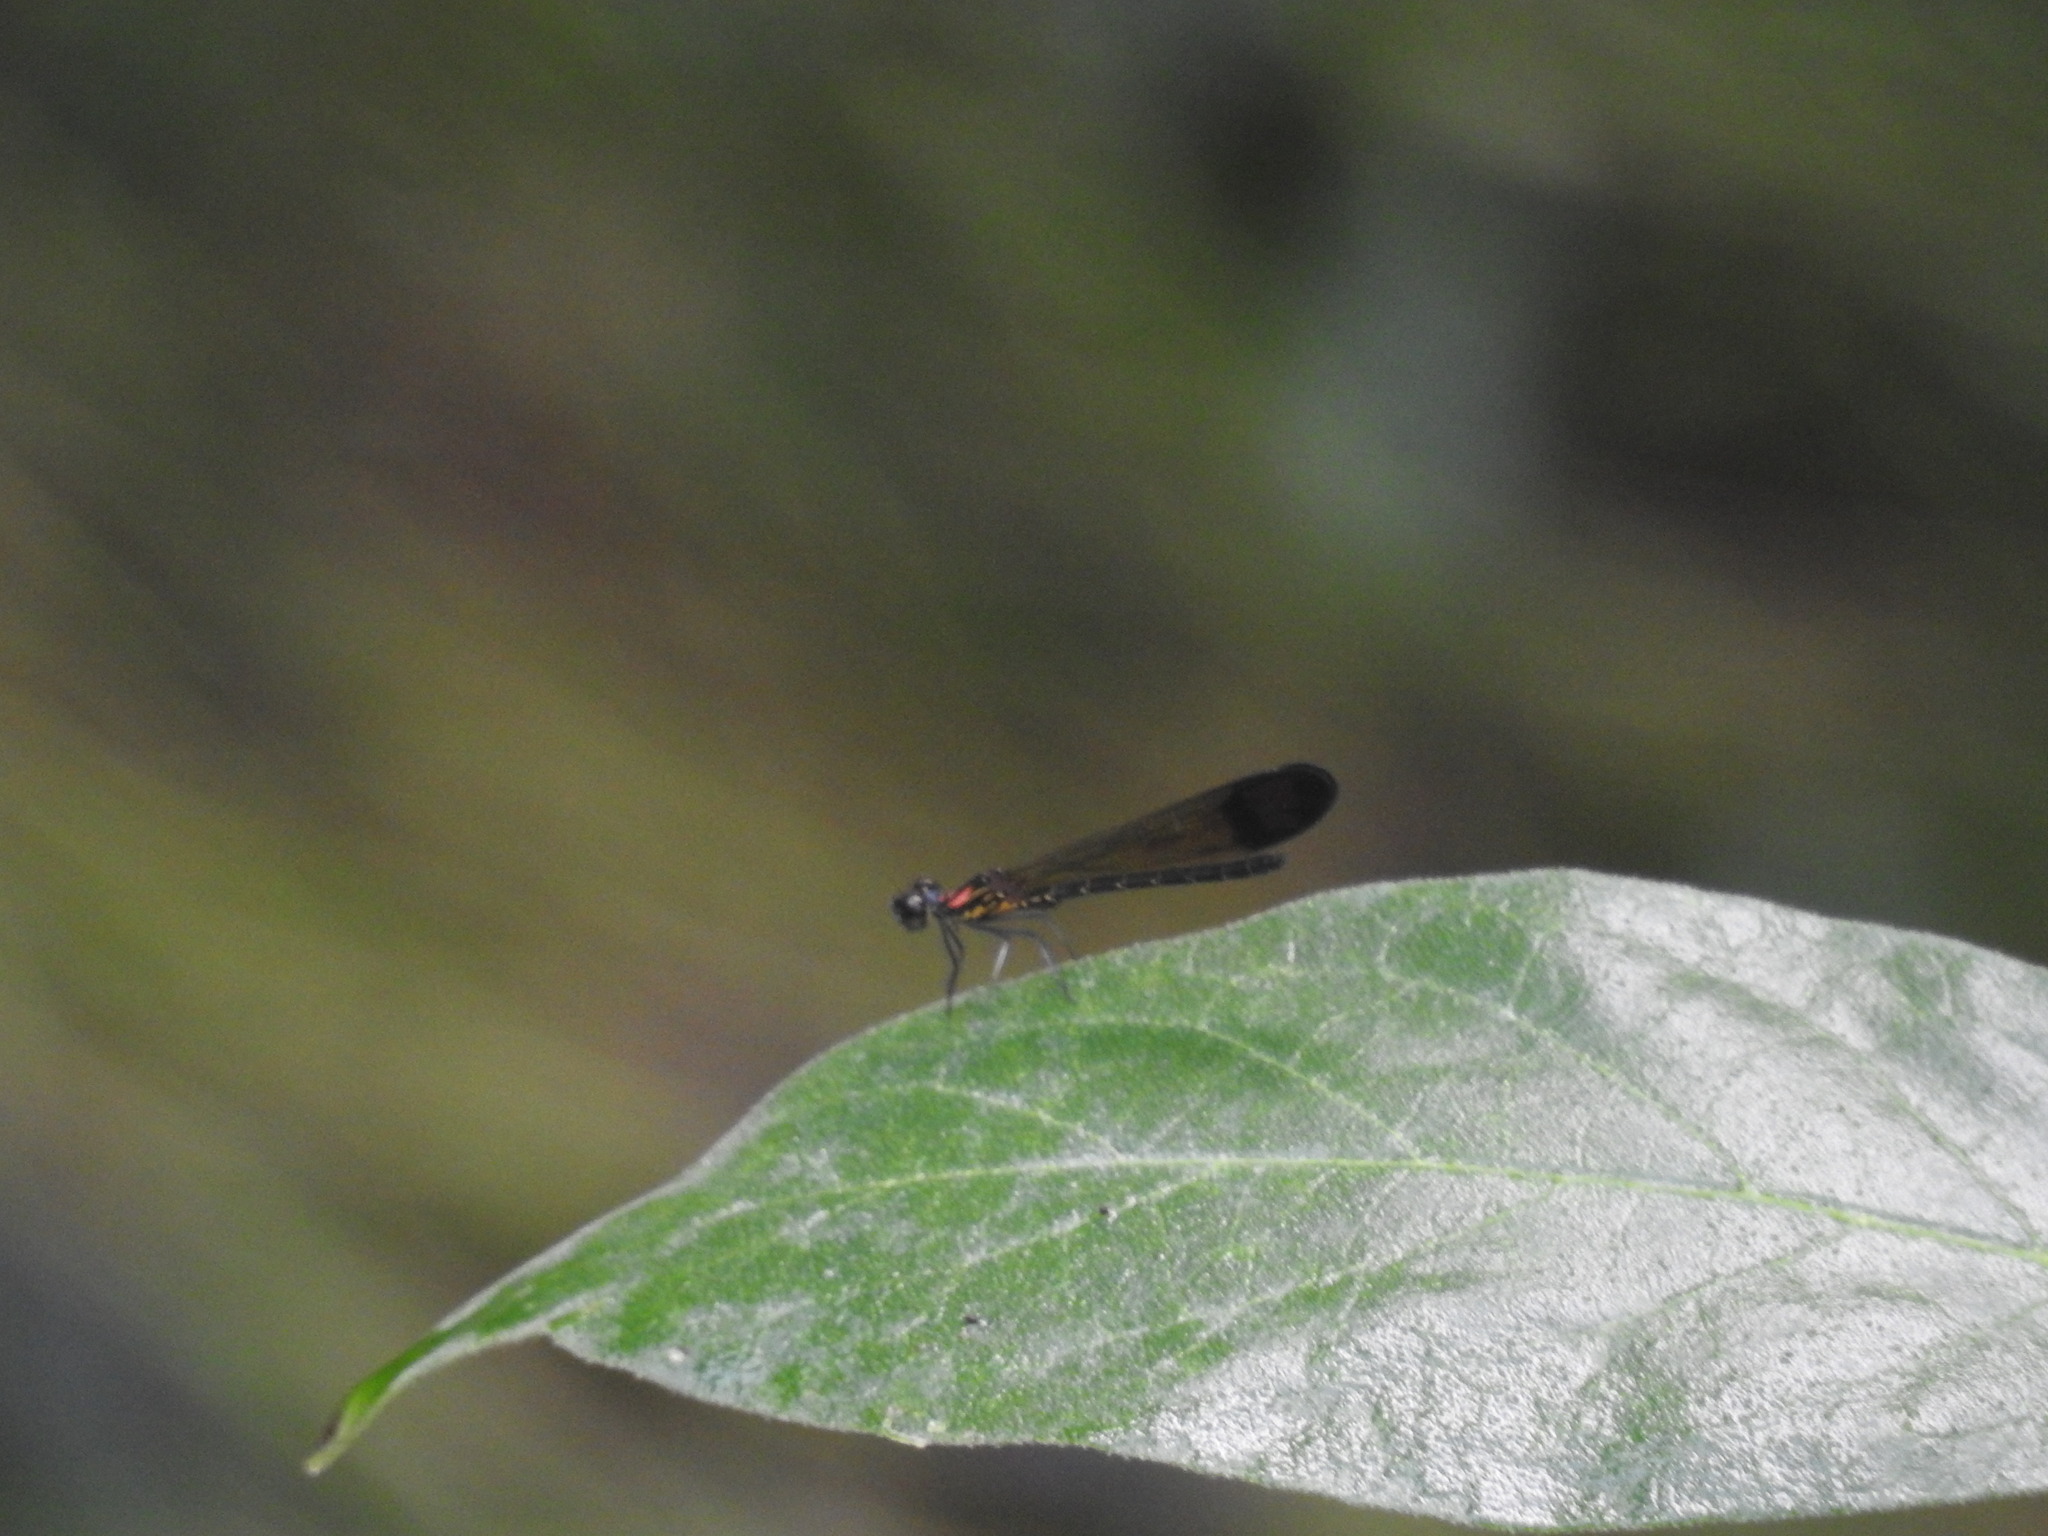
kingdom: Animalia
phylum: Arthropoda
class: Insecta
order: Odonata
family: Chlorocyphidae
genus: Heliocypha
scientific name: Heliocypha bisignata
